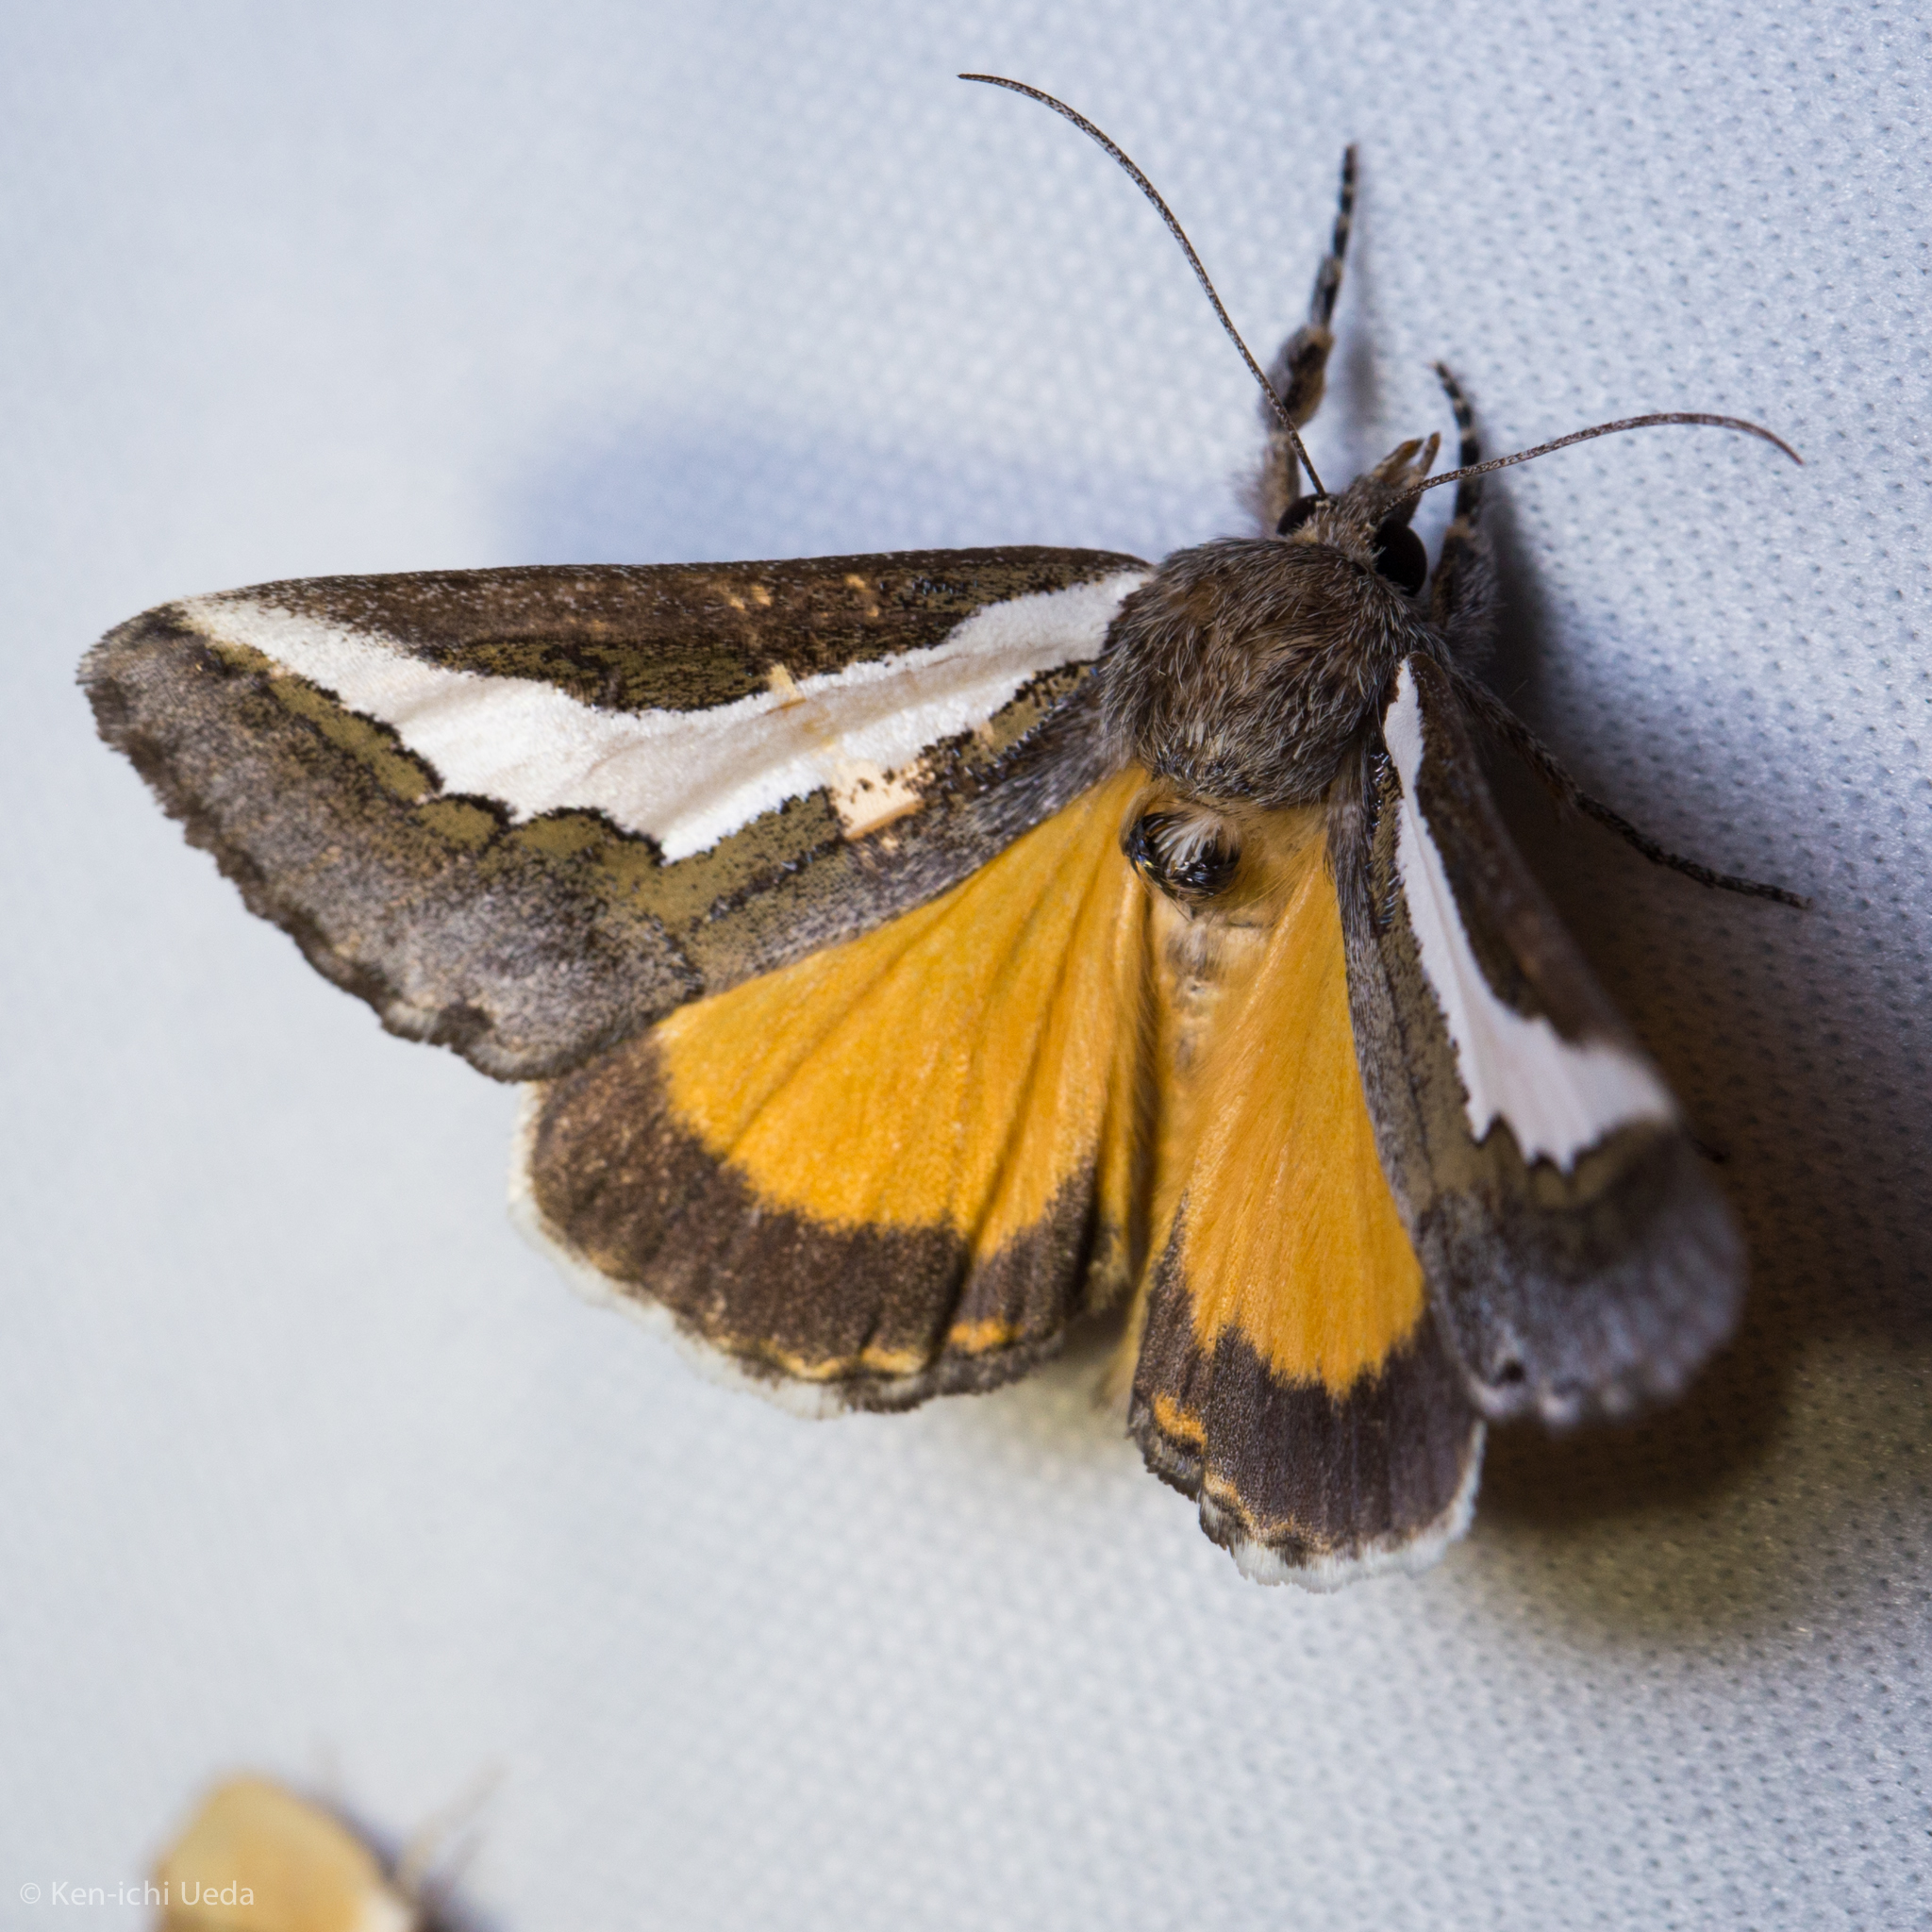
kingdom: Animalia
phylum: Arthropoda
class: Insecta
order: Lepidoptera
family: Noctuidae
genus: Euscirrhopterus
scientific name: Euscirrhopterus cosyra
